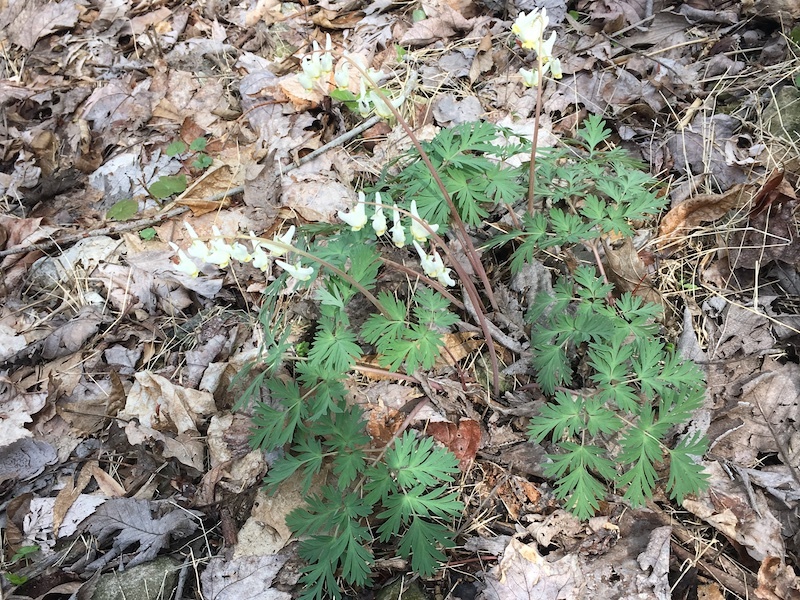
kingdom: Plantae
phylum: Tracheophyta
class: Magnoliopsida
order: Ranunculales
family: Papaveraceae
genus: Dicentra
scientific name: Dicentra cucullaria
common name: Dutchman's breeches
